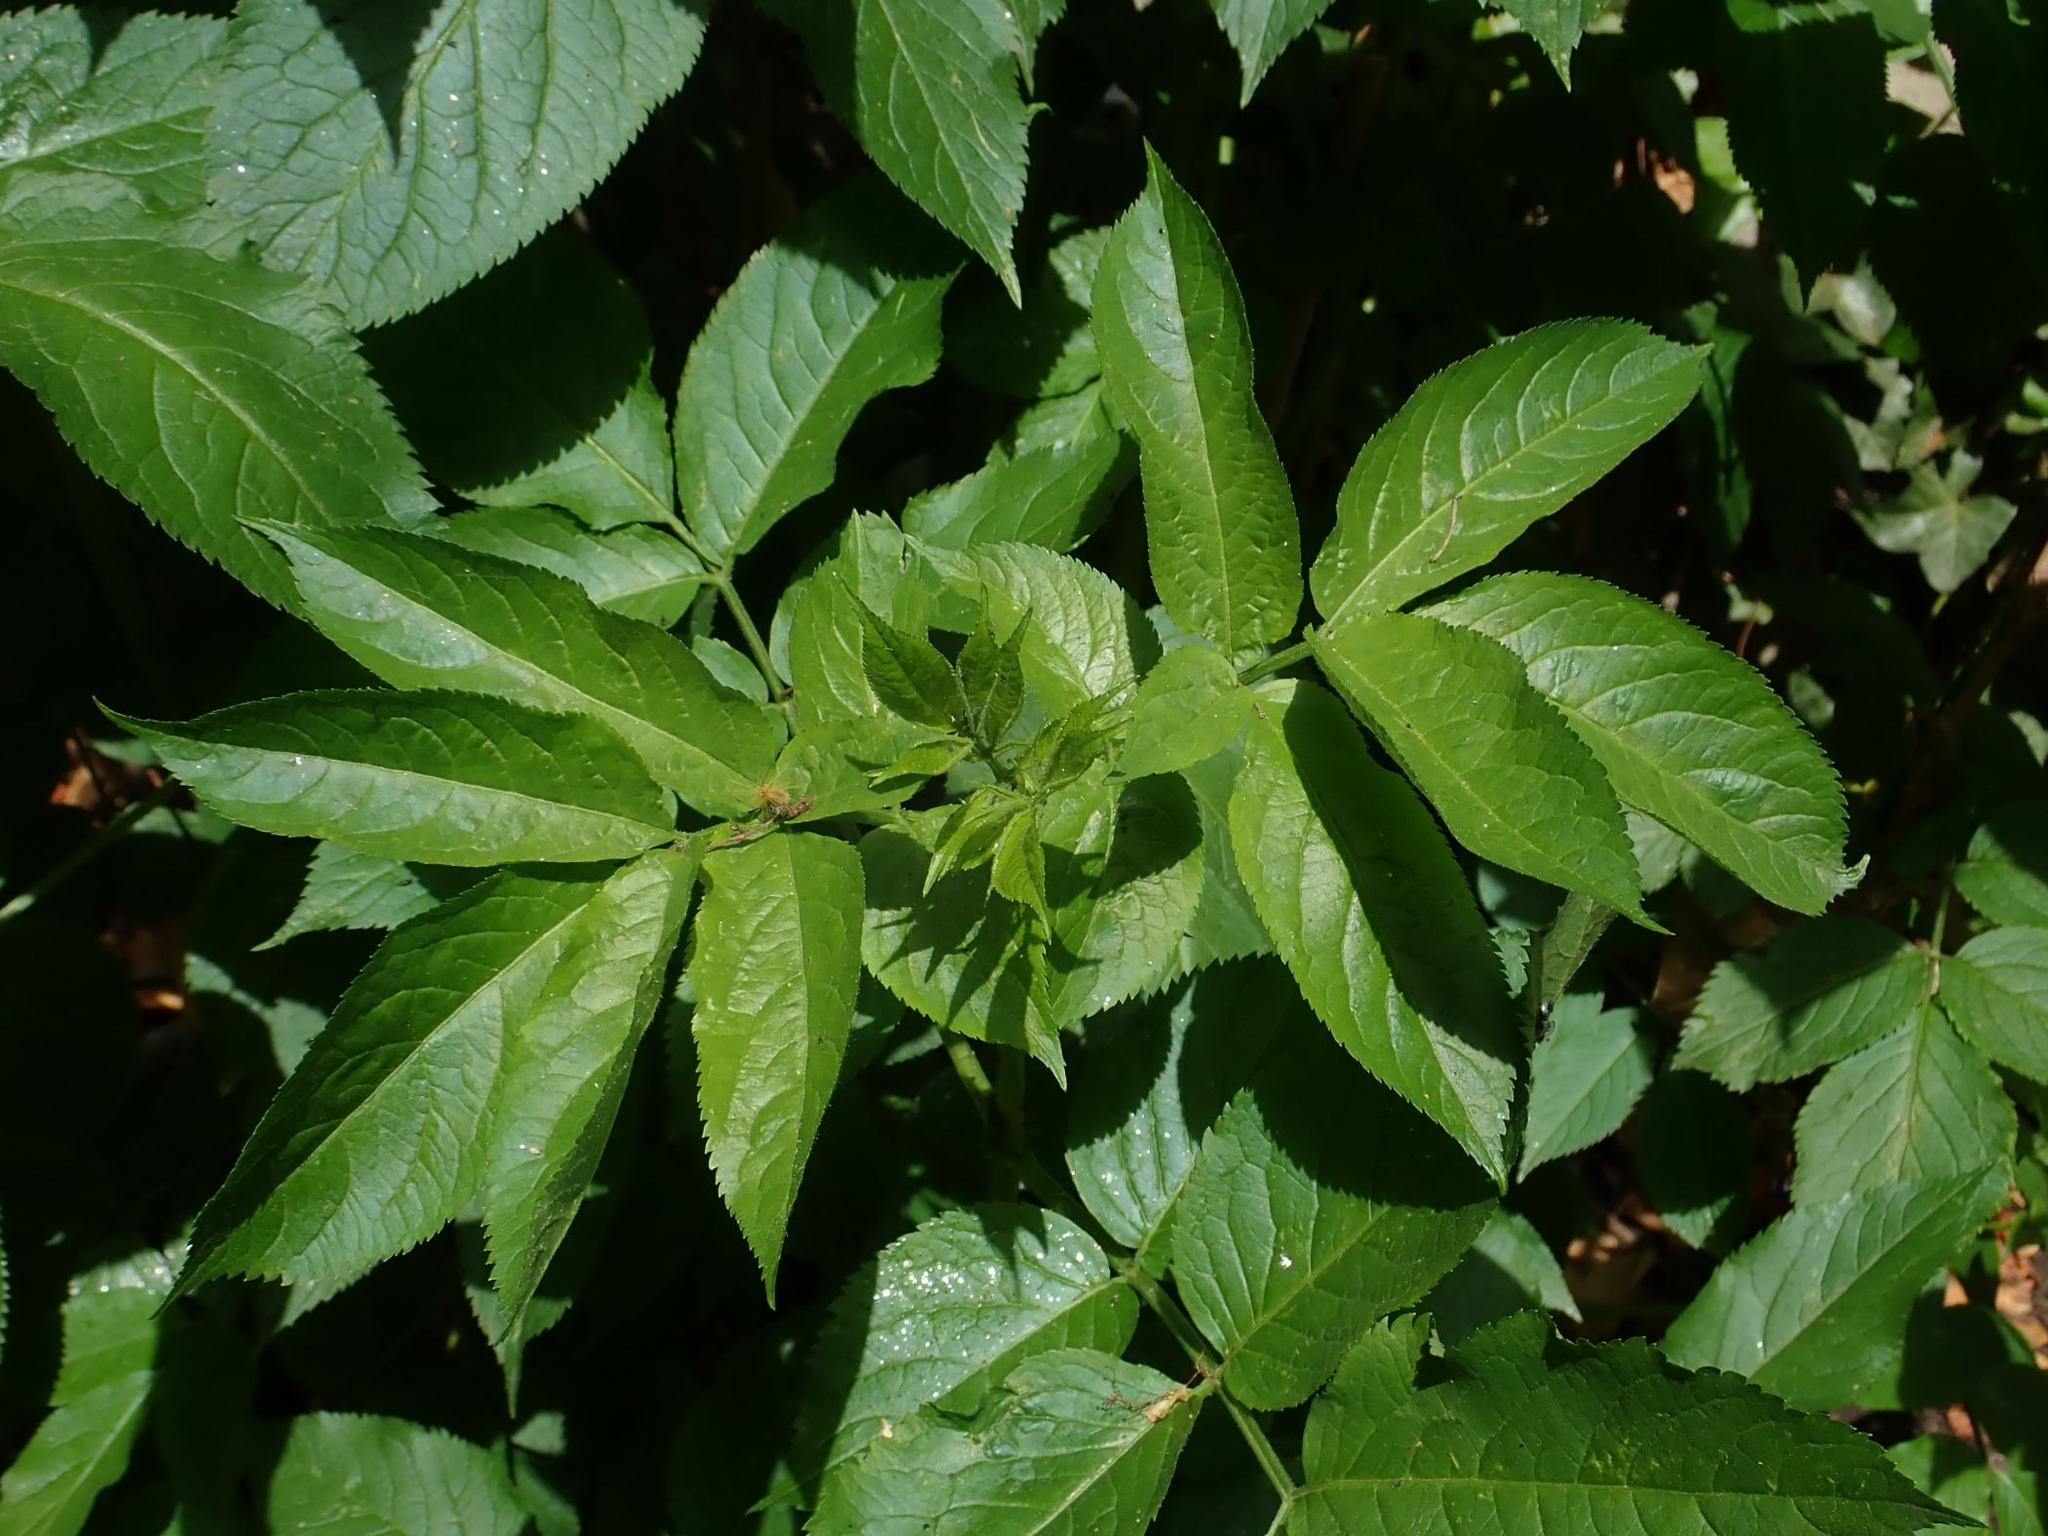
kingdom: Plantae
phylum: Tracheophyta
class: Magnoliopsida
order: Dipsacales
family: Viburnaceae
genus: Sambucus
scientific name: Sambucus nigra
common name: Elder
